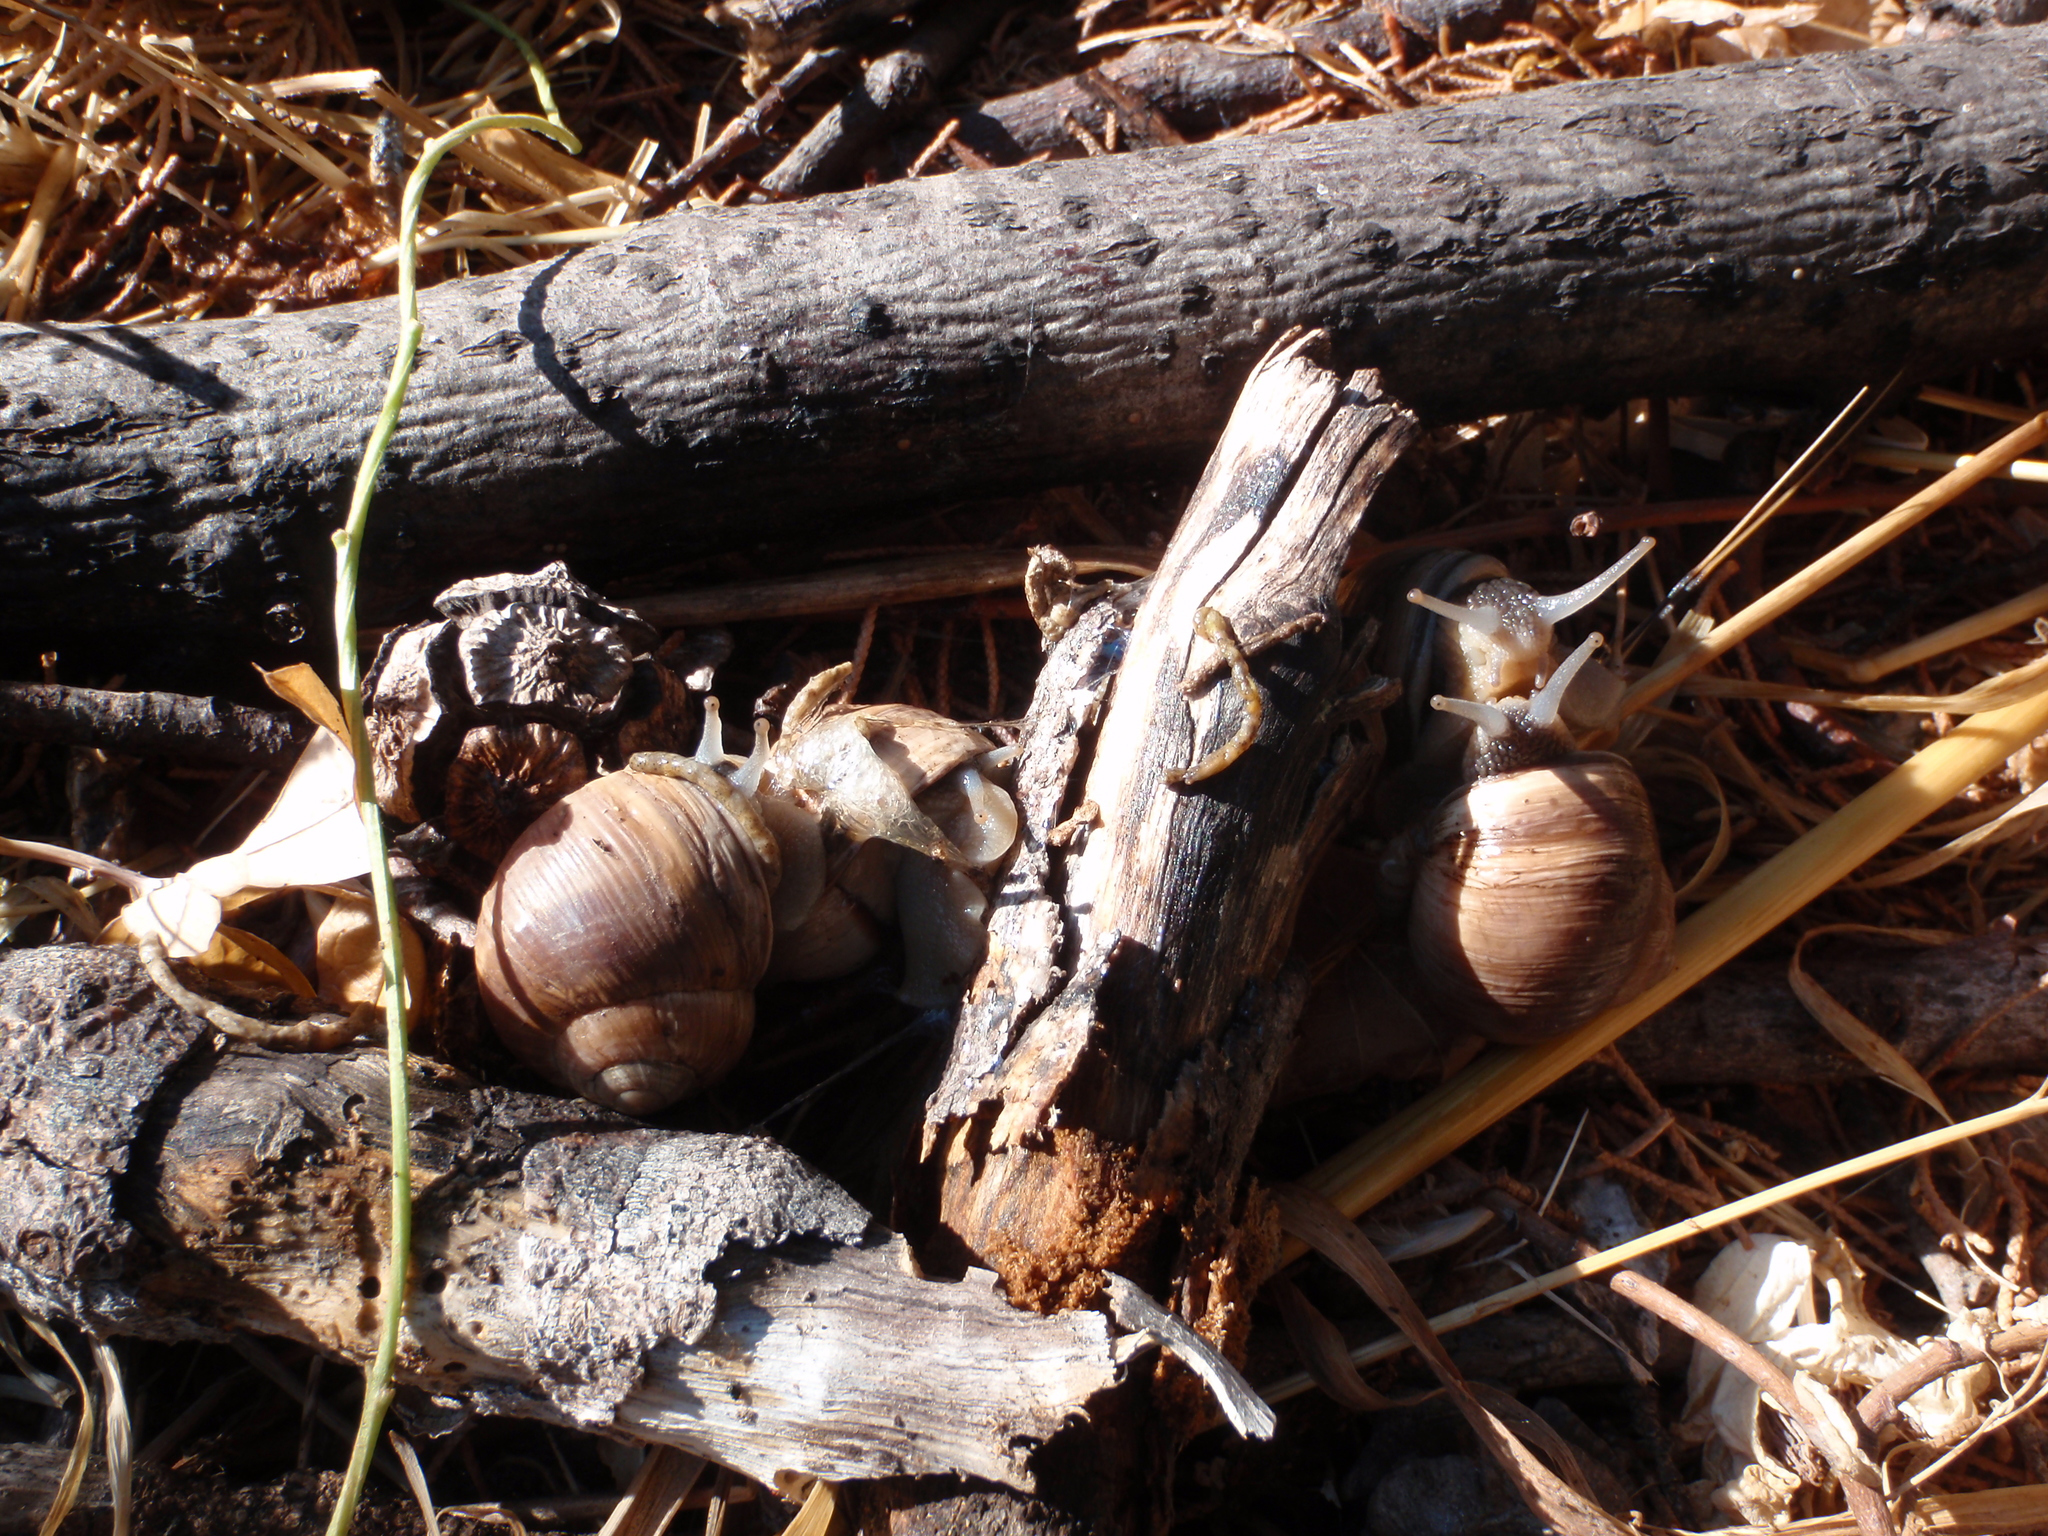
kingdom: Animalia
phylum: Mollusca
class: Gastropoda
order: Stylommatophora
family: Helicidae
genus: Helix
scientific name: Helix melanostoma
